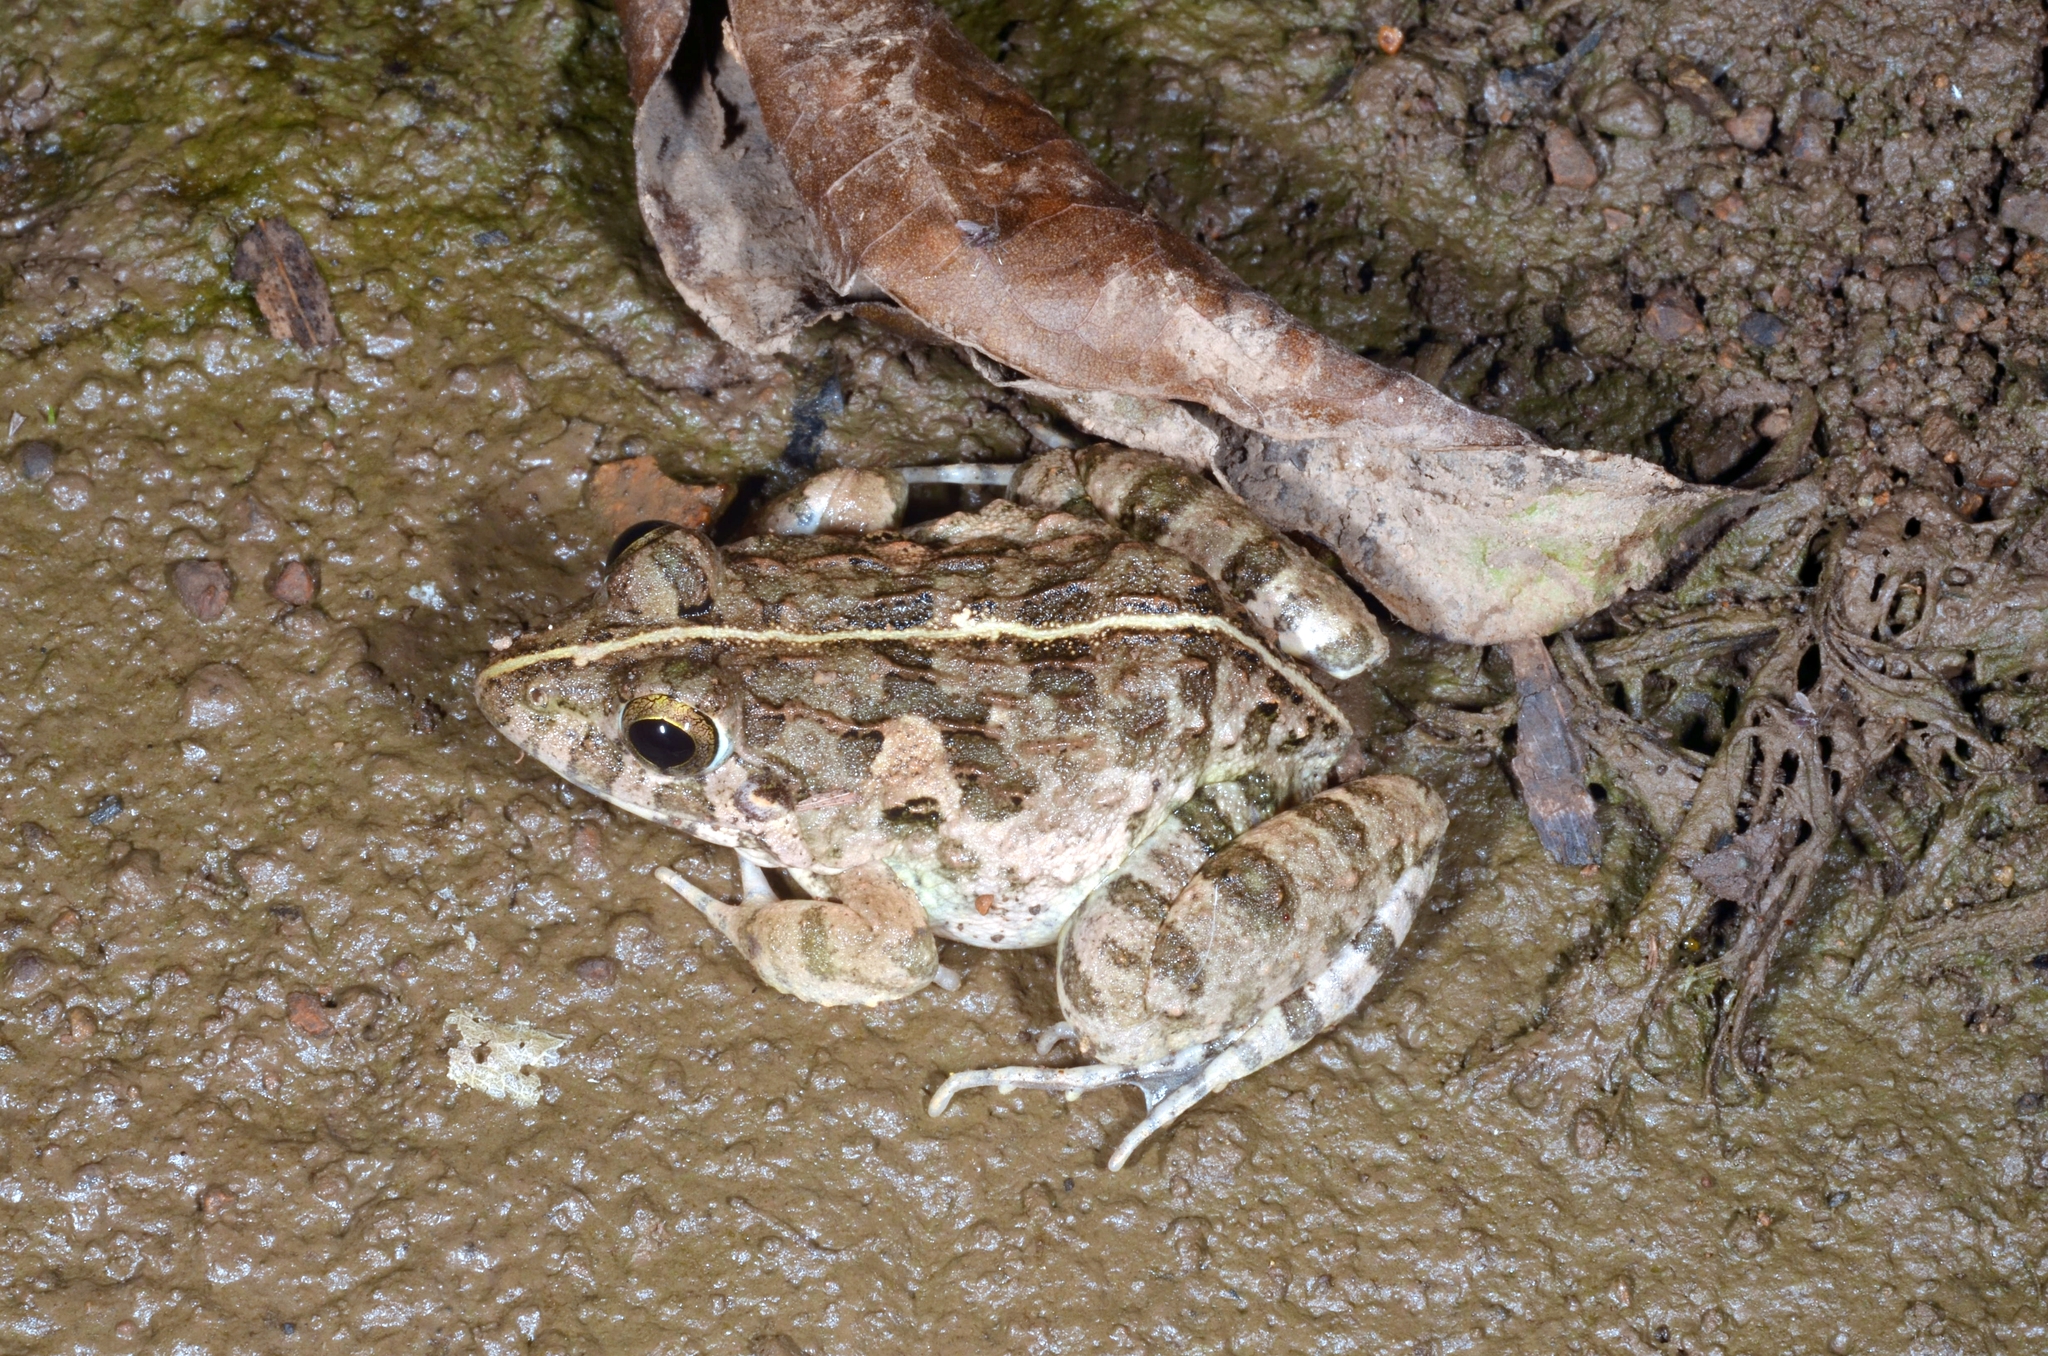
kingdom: Animalia
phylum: Chordata
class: Amphibia
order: Anura
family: Dicroglossidae
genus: Fejervarya
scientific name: Fejervarya limnocharis
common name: Asian grass frog/common pond frog/field frog/grass frog/indian rice frog
